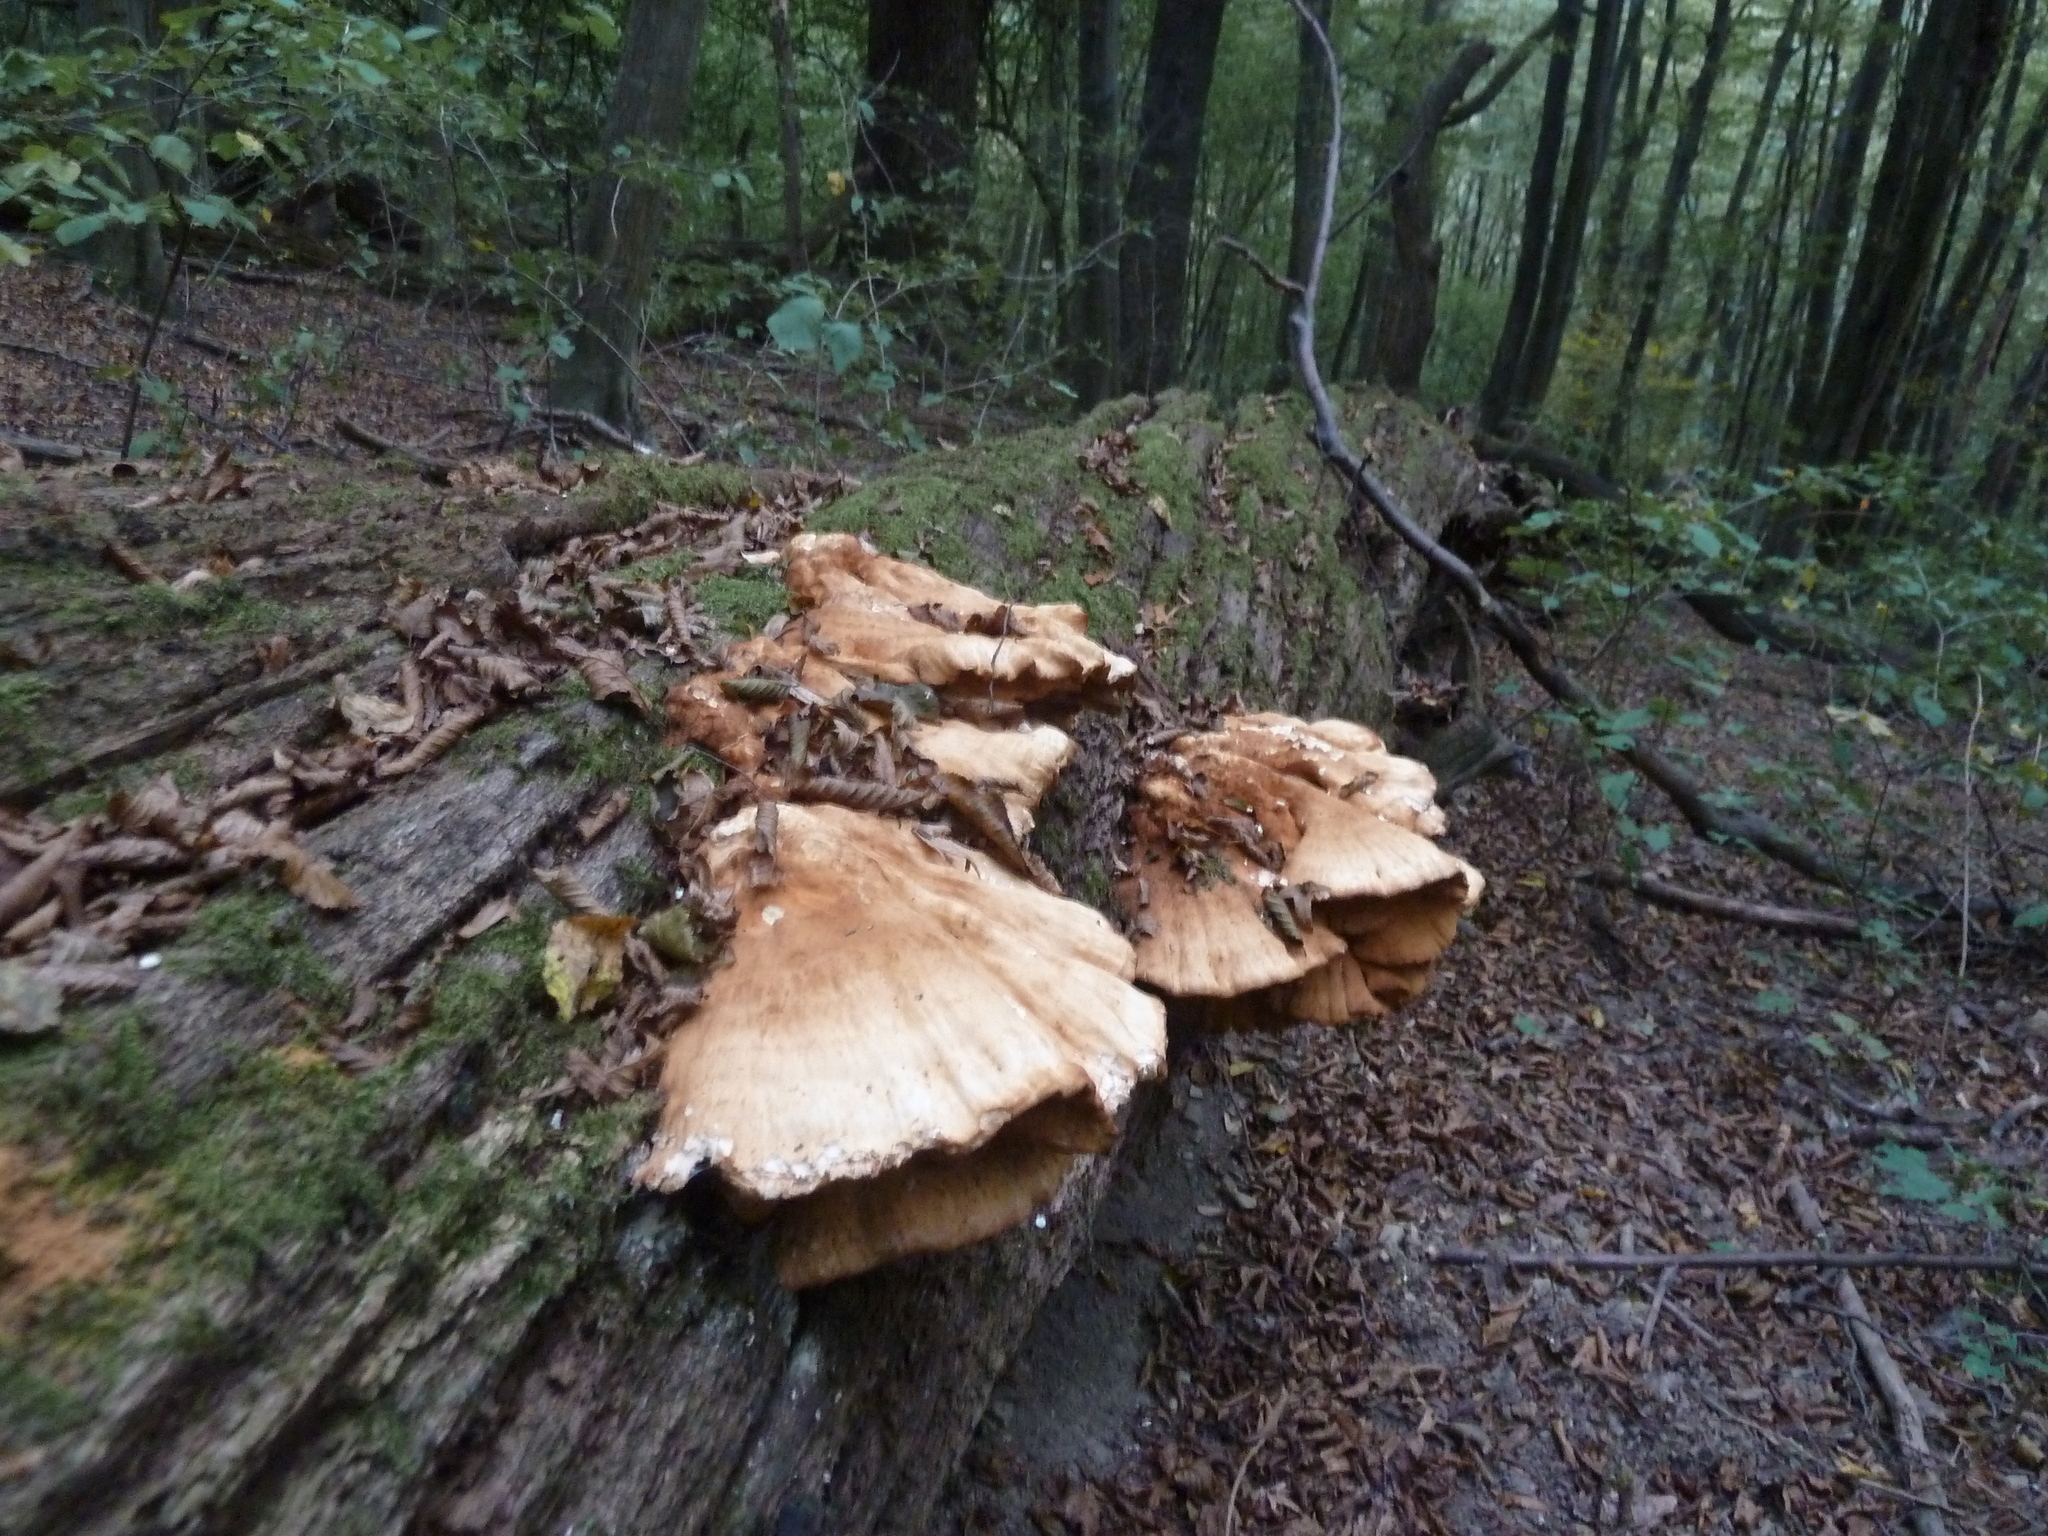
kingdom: Fungi
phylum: Basidiomycota
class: Agaricomycetes
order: Polyporales
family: Laetiporaceae
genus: Laetiporus
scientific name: Laetiporus sulphureus
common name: Chicken of the woods
